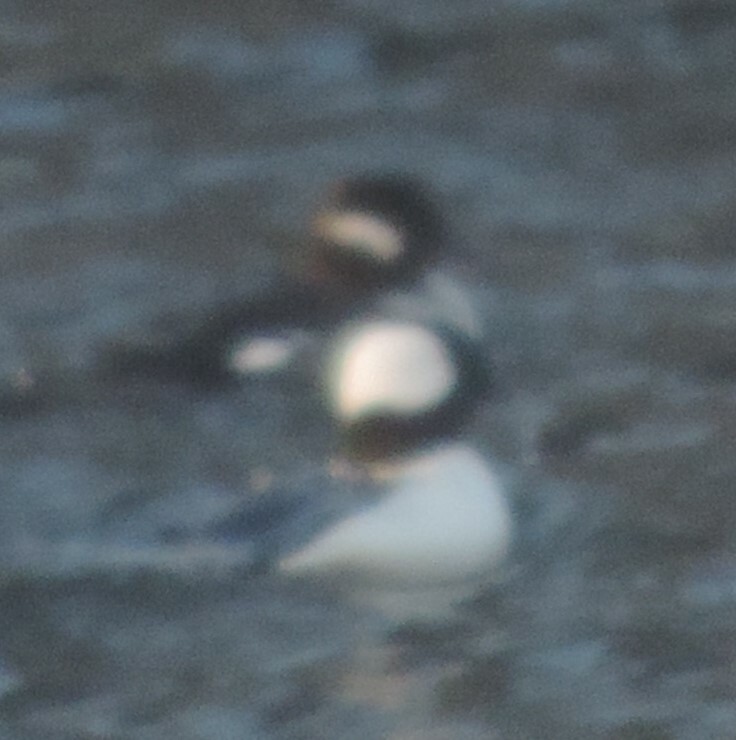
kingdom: Animalia
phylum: Chordata
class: Aves
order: Anseriformes
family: Anatidae
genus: Bucephala
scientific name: Bucephala albeola
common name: Bufflehead
